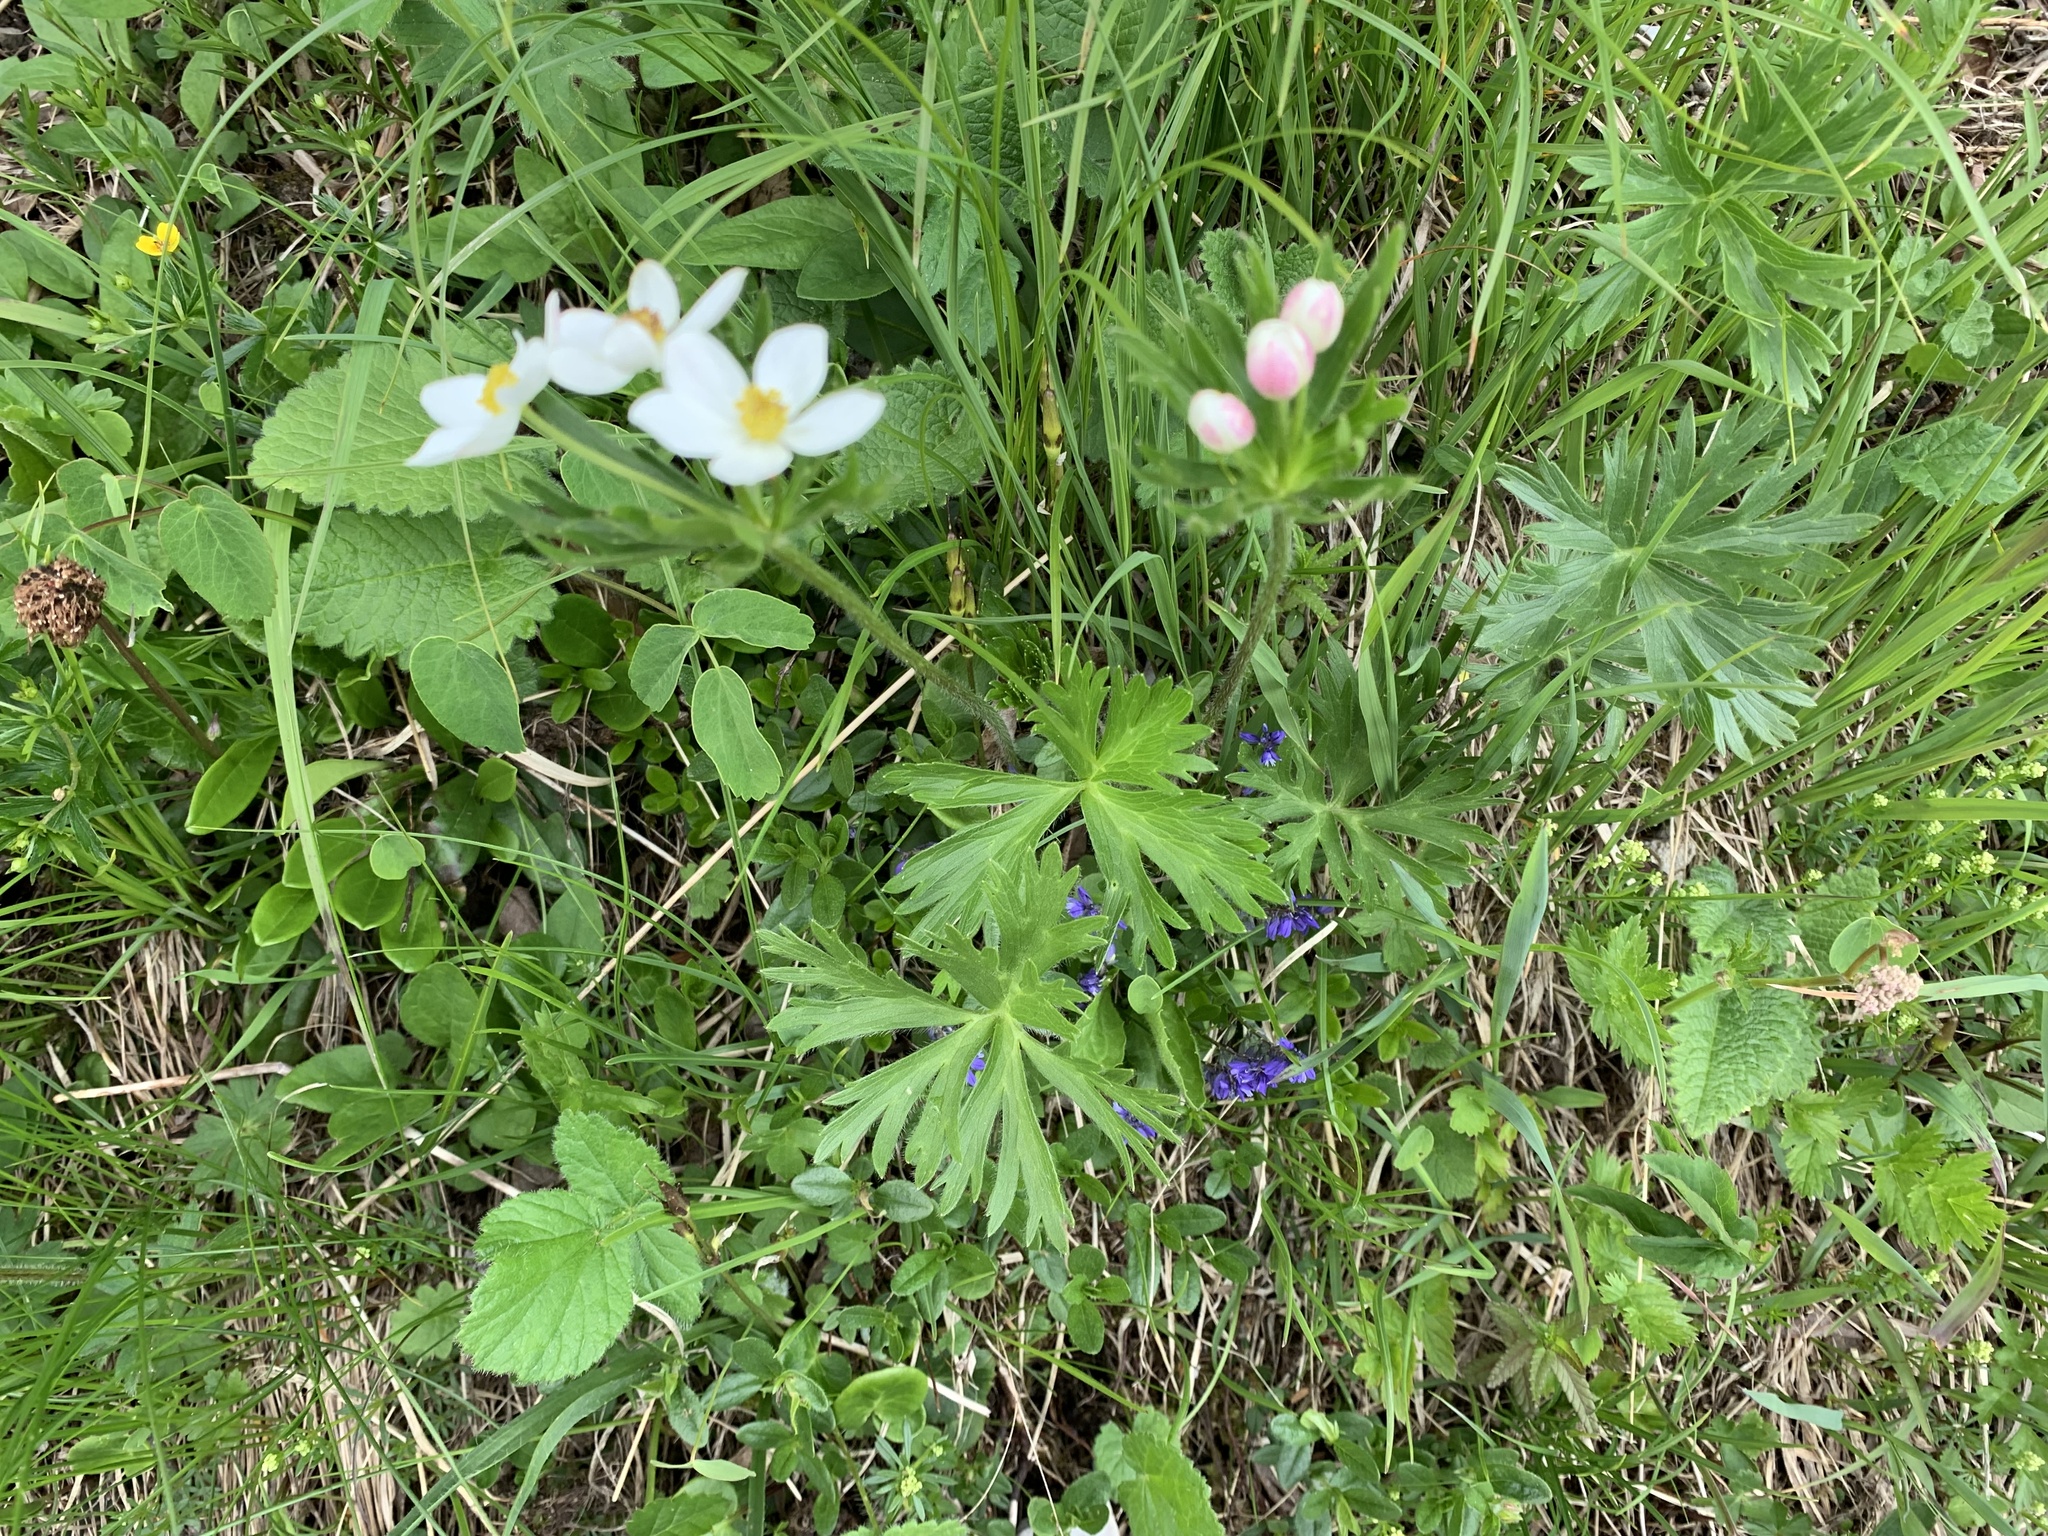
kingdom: Plantae
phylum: Tracheophyta
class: Magnoliopsida
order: Ranunculales
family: Ranunculaceae
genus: Anemonastrum
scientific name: Anemonastrum narcissiflorum
